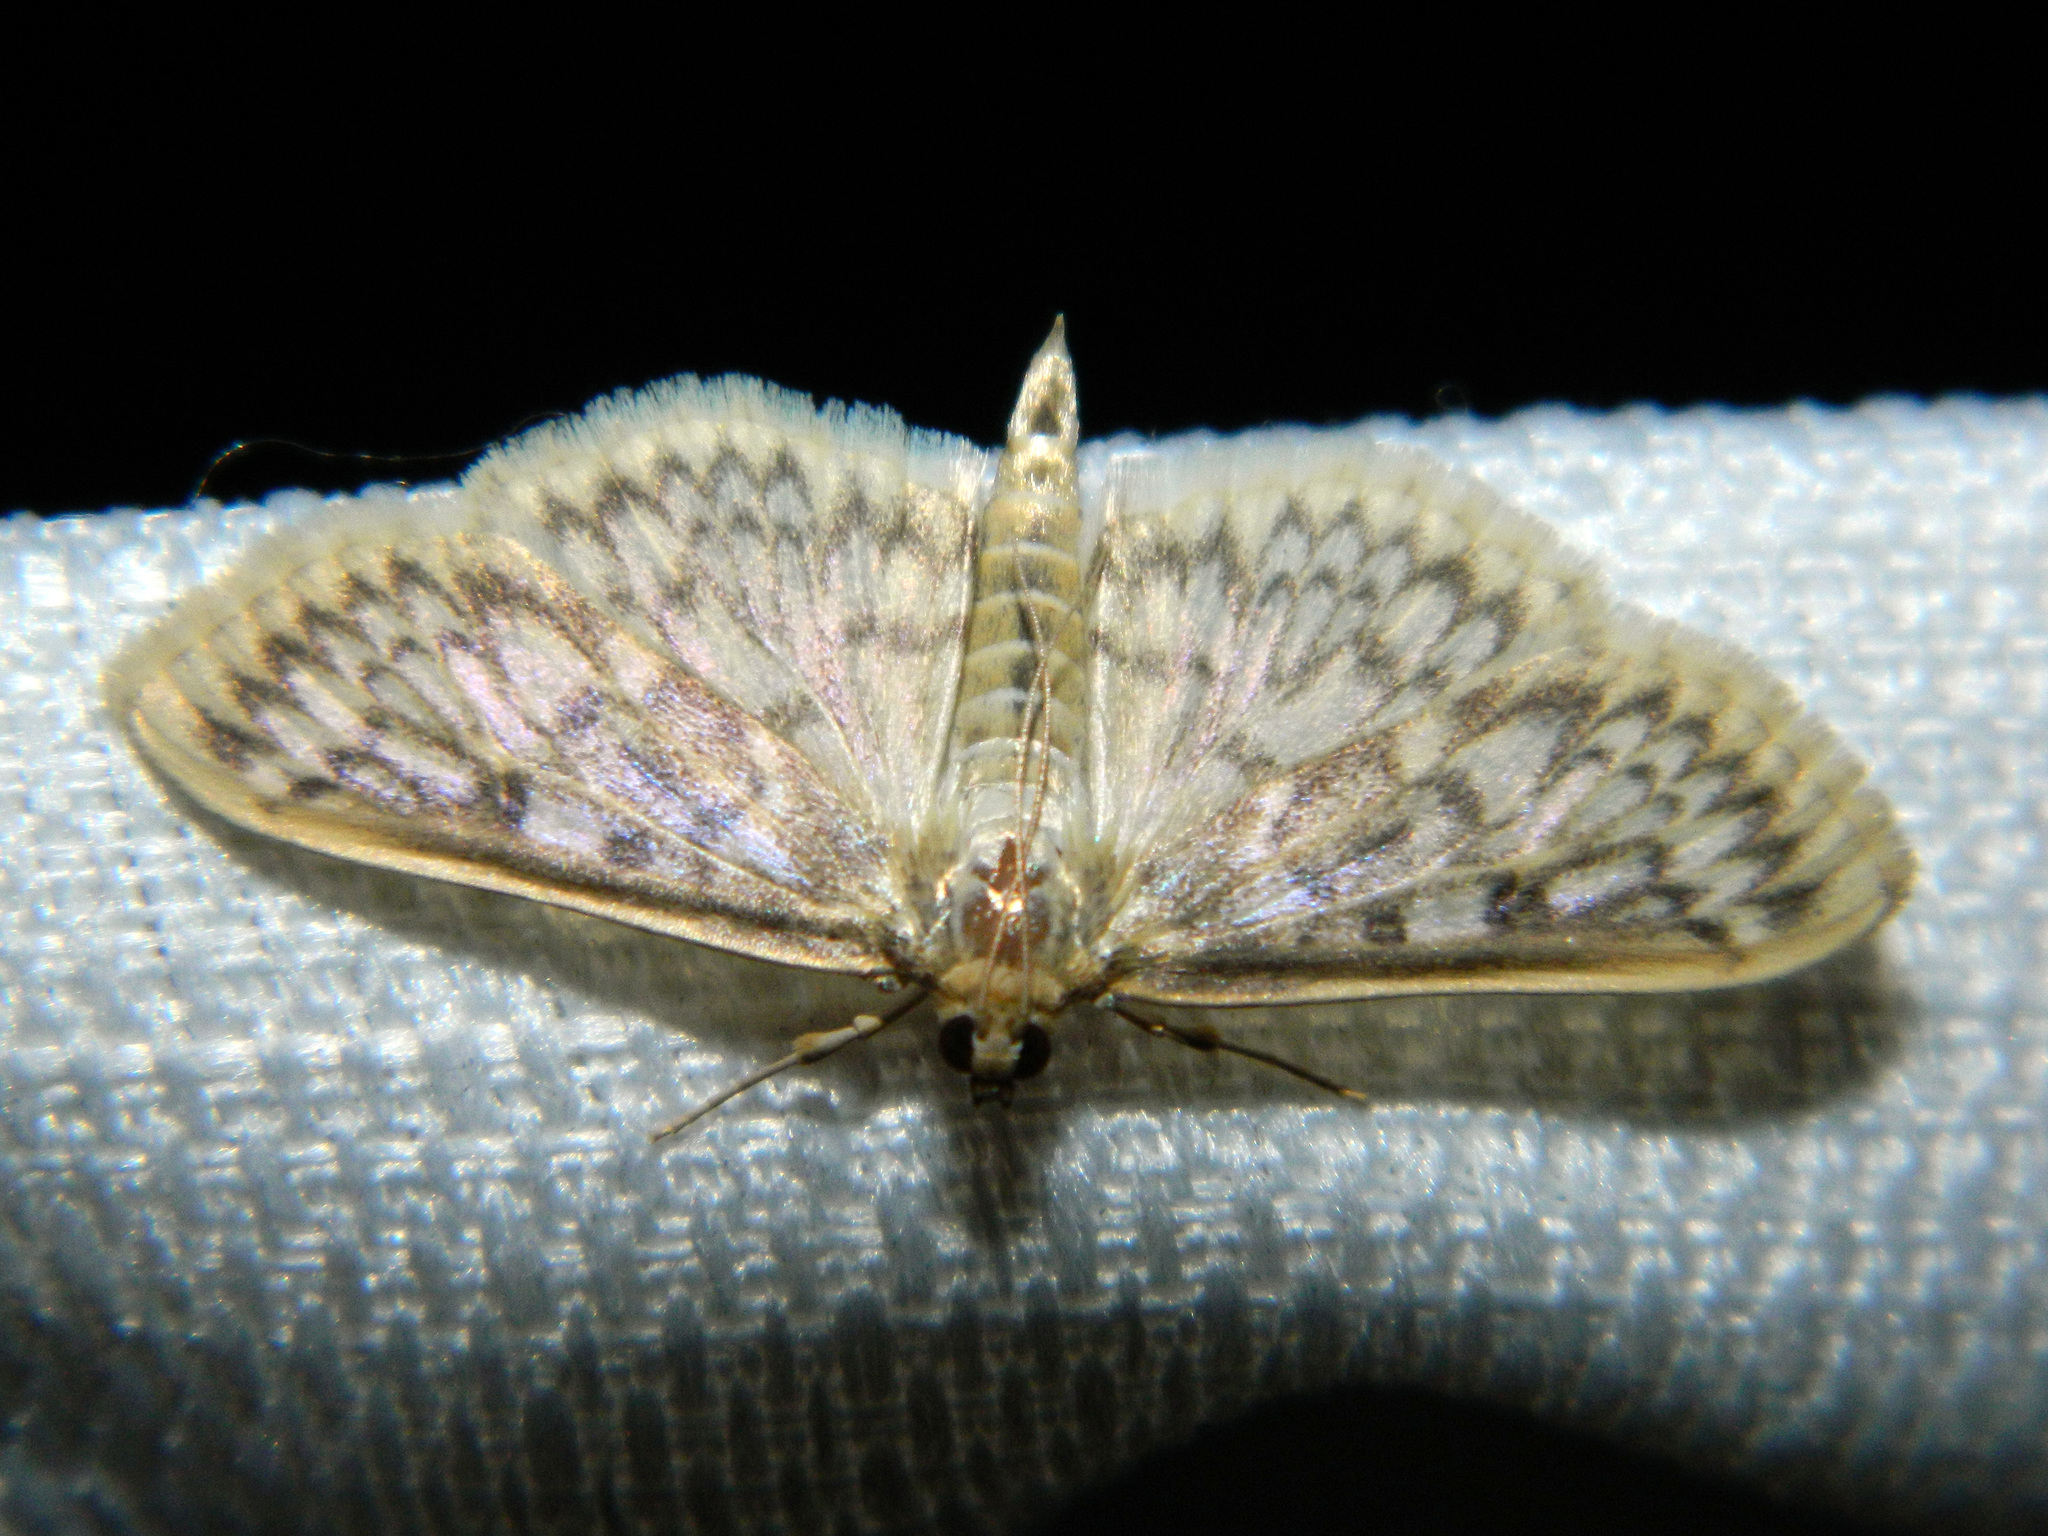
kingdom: Animalia
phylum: Arthropoda
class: Insecta
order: Lepidoptera
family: Crambidae
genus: Herpetogramma
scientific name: Herpetogramma pertextalis
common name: Bold-feathered grass moth
